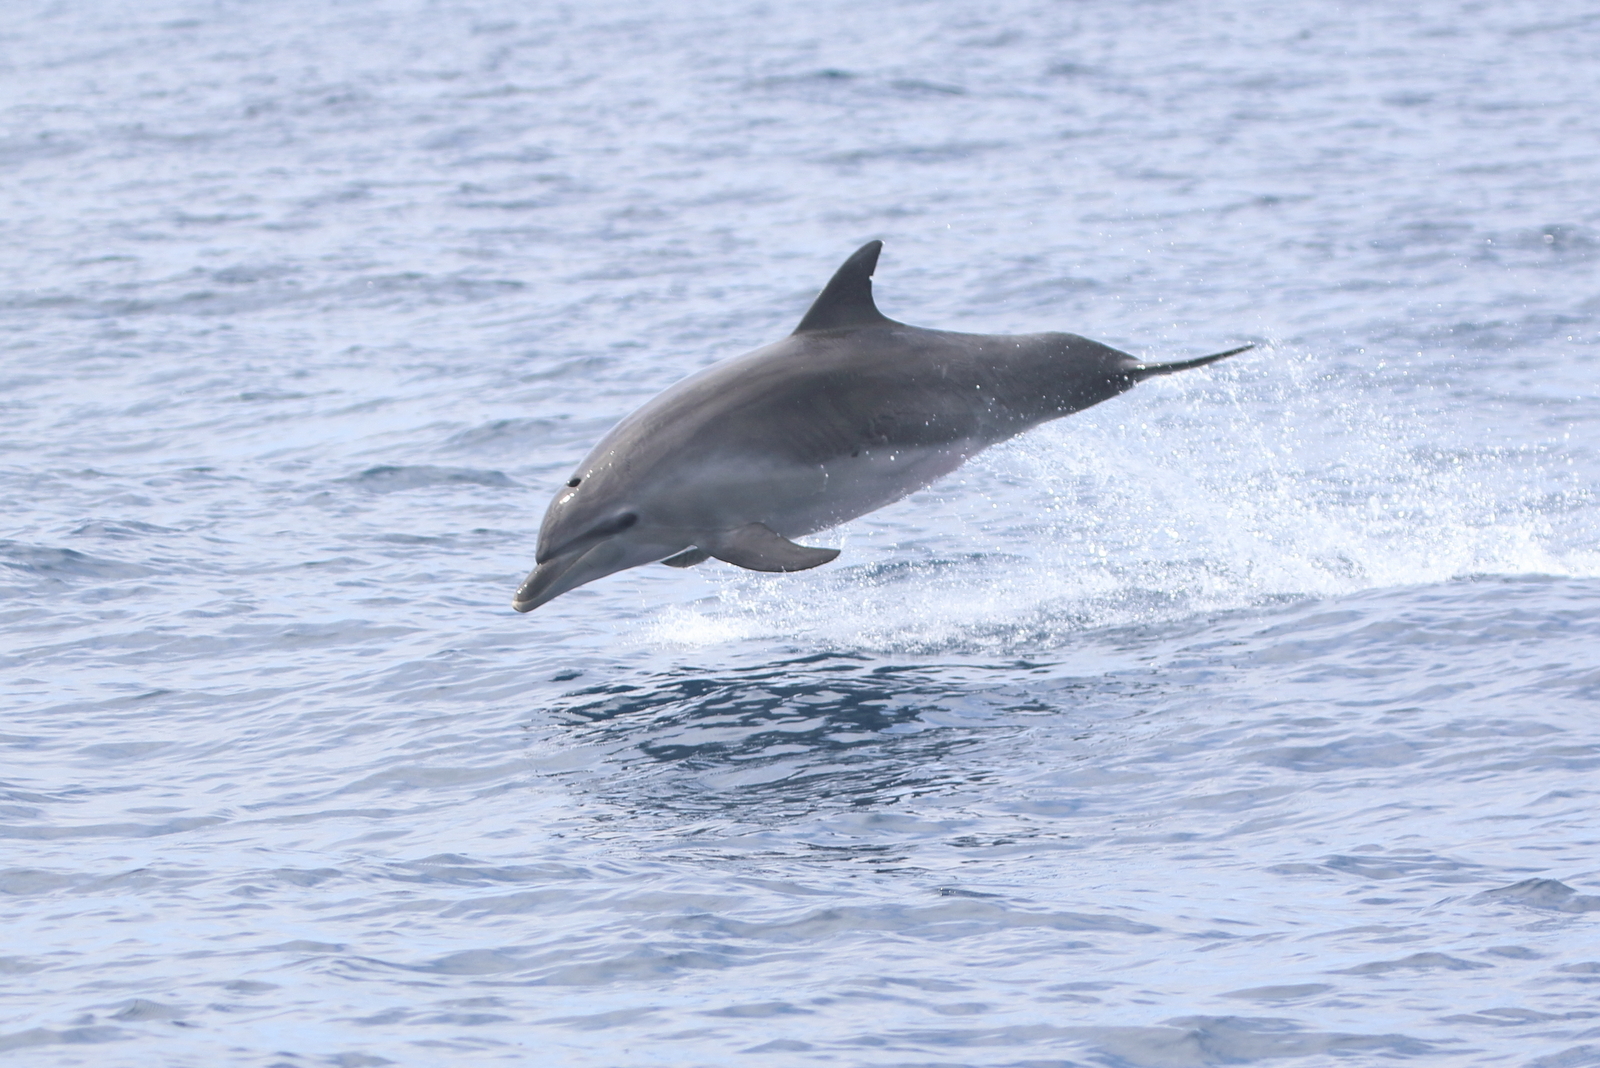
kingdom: Animalia
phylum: Chordata
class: Mammalia
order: Cetacea
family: Delphinidae
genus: Tursiops
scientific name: Tursiops aduncus
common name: Indo-pacific bottlenose dolphin
